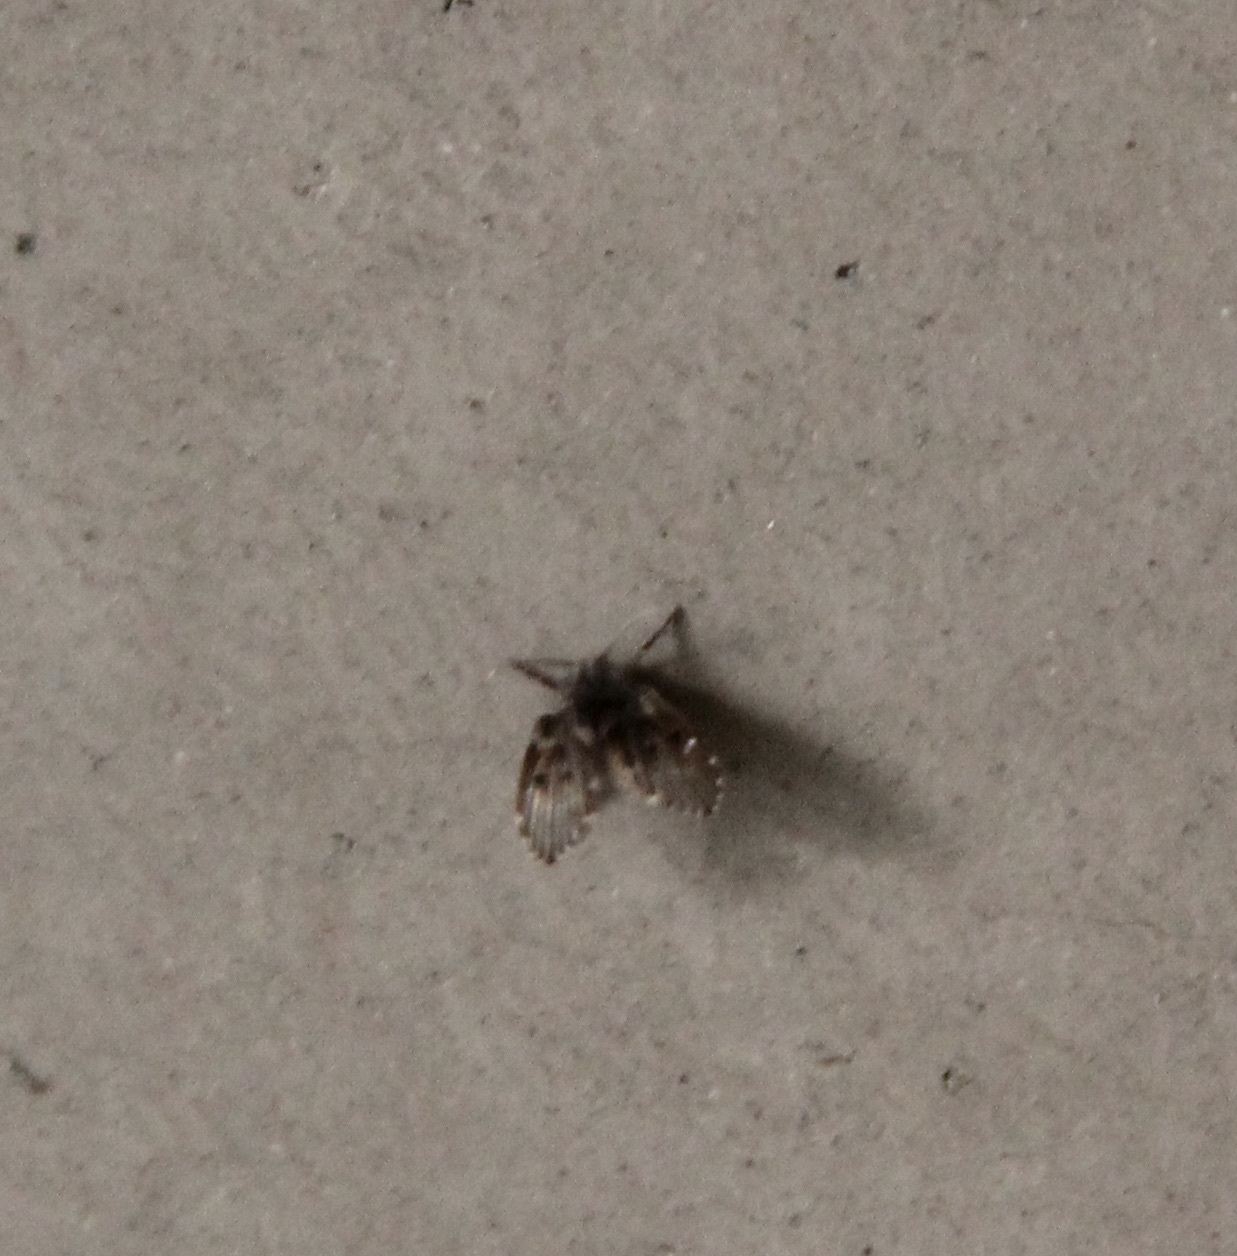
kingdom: Animalia
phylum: Arthropoda
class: Insecta
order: Diptera
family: Psychodidae
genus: Clogmia
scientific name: Clogmia albipunctatus
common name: White-spotted moth fly
